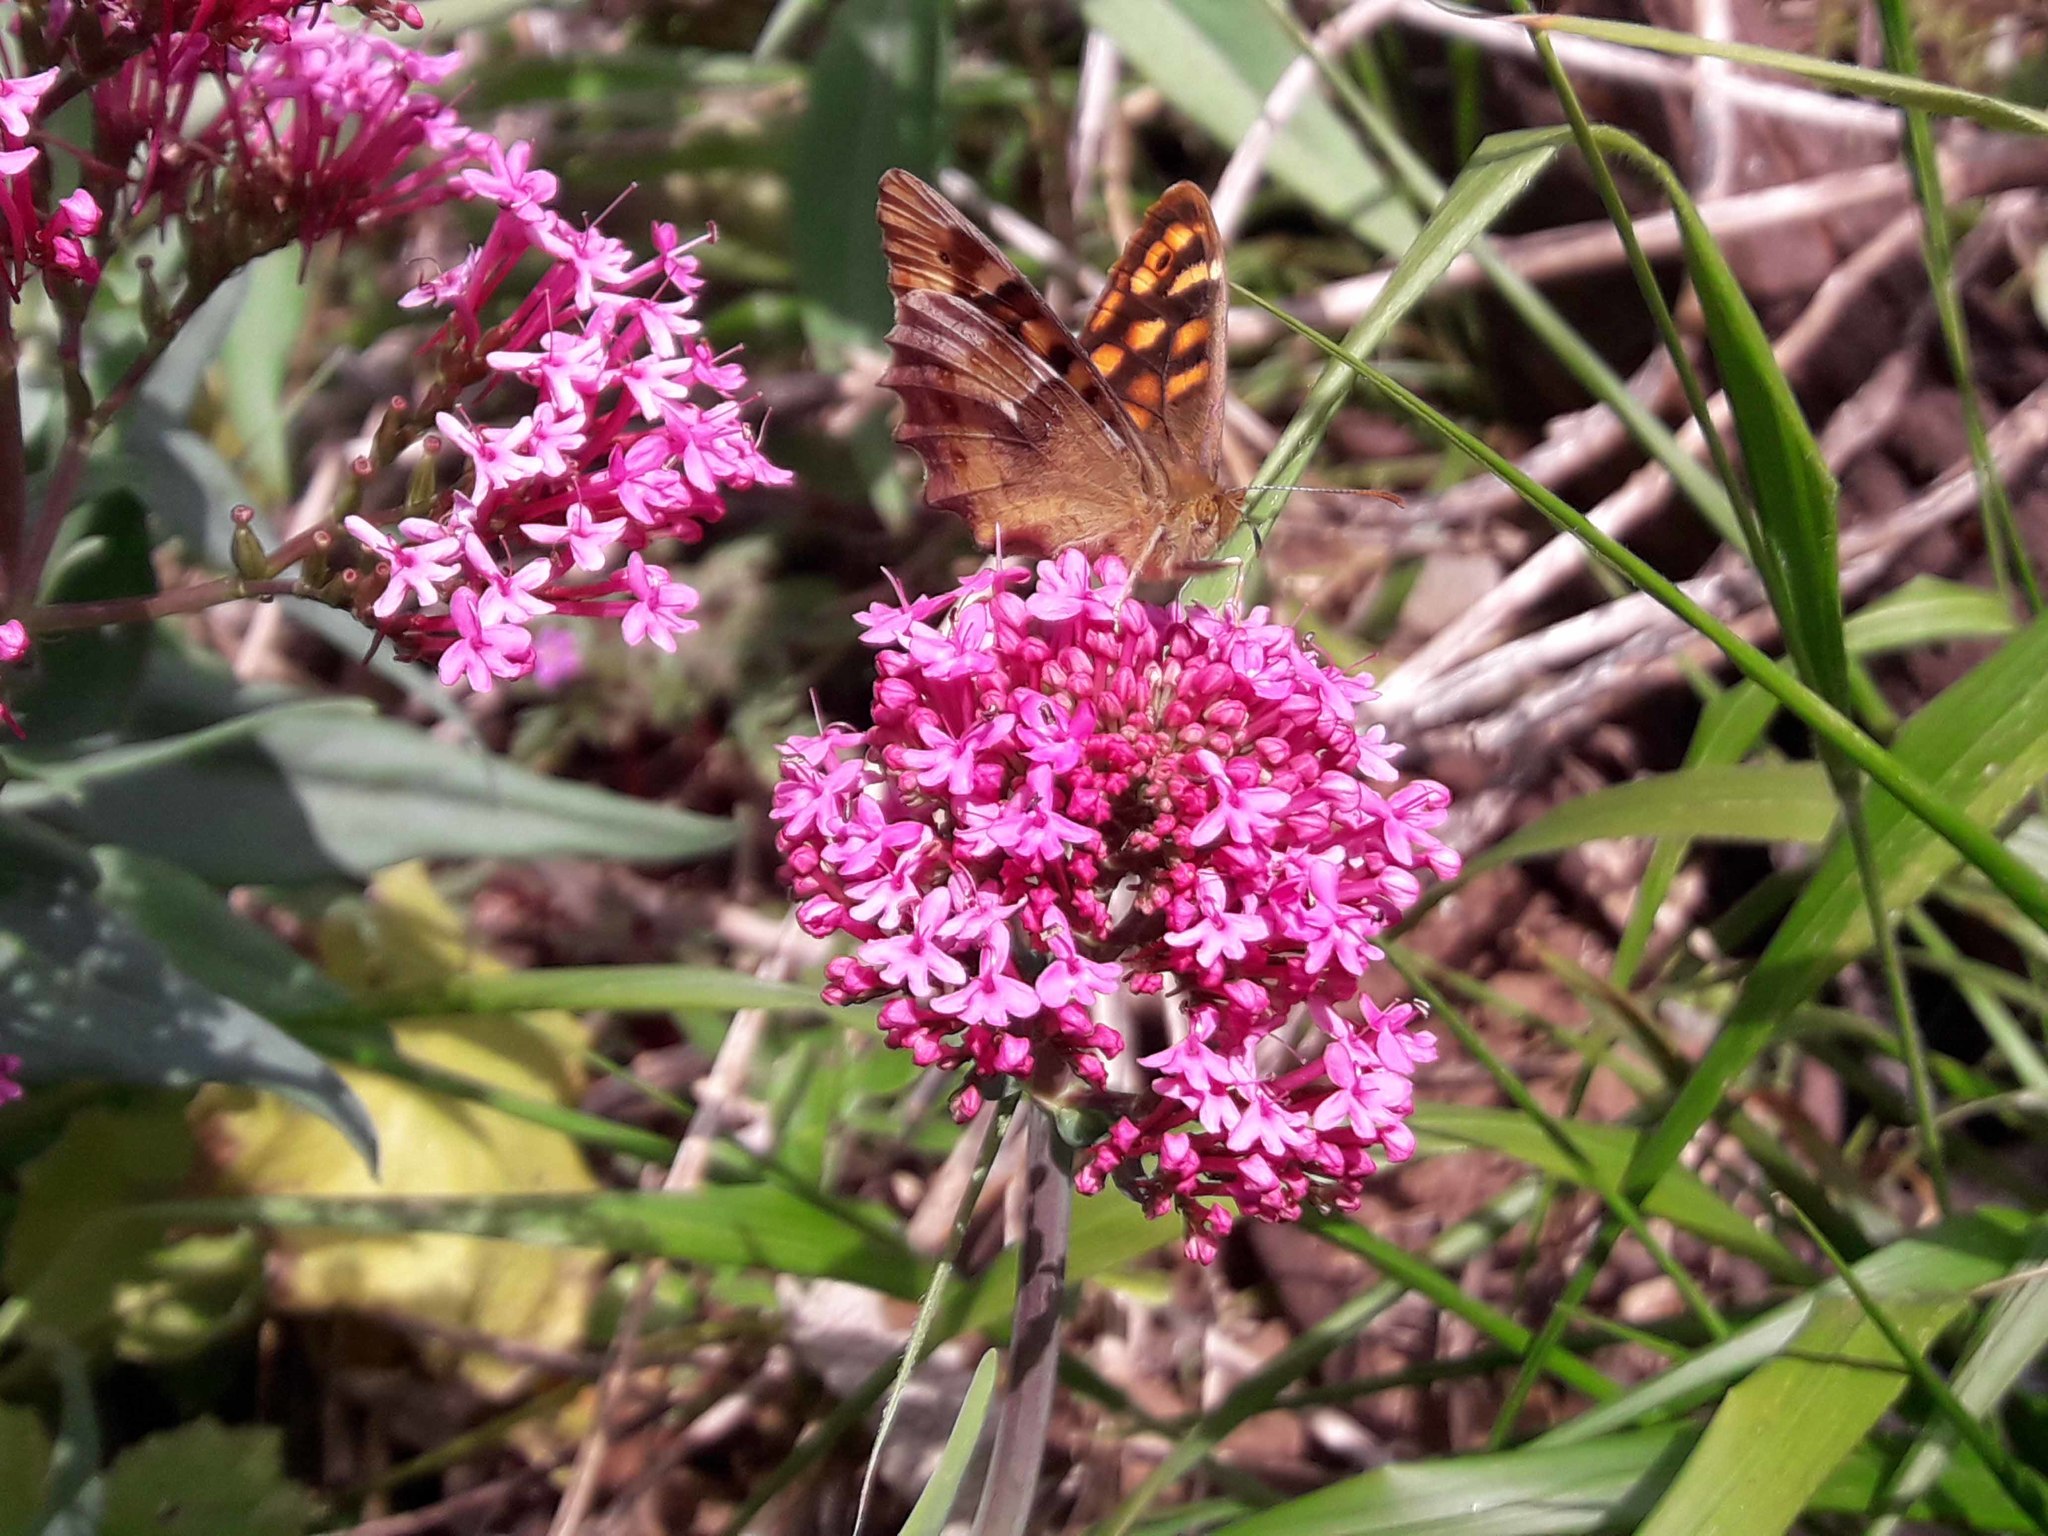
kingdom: Animalia
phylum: Arthropoda
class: Insecta
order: Lepidoptera
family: Nymphalidae
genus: Pararge
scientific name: Pararge aegeria
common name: Speckled wood
